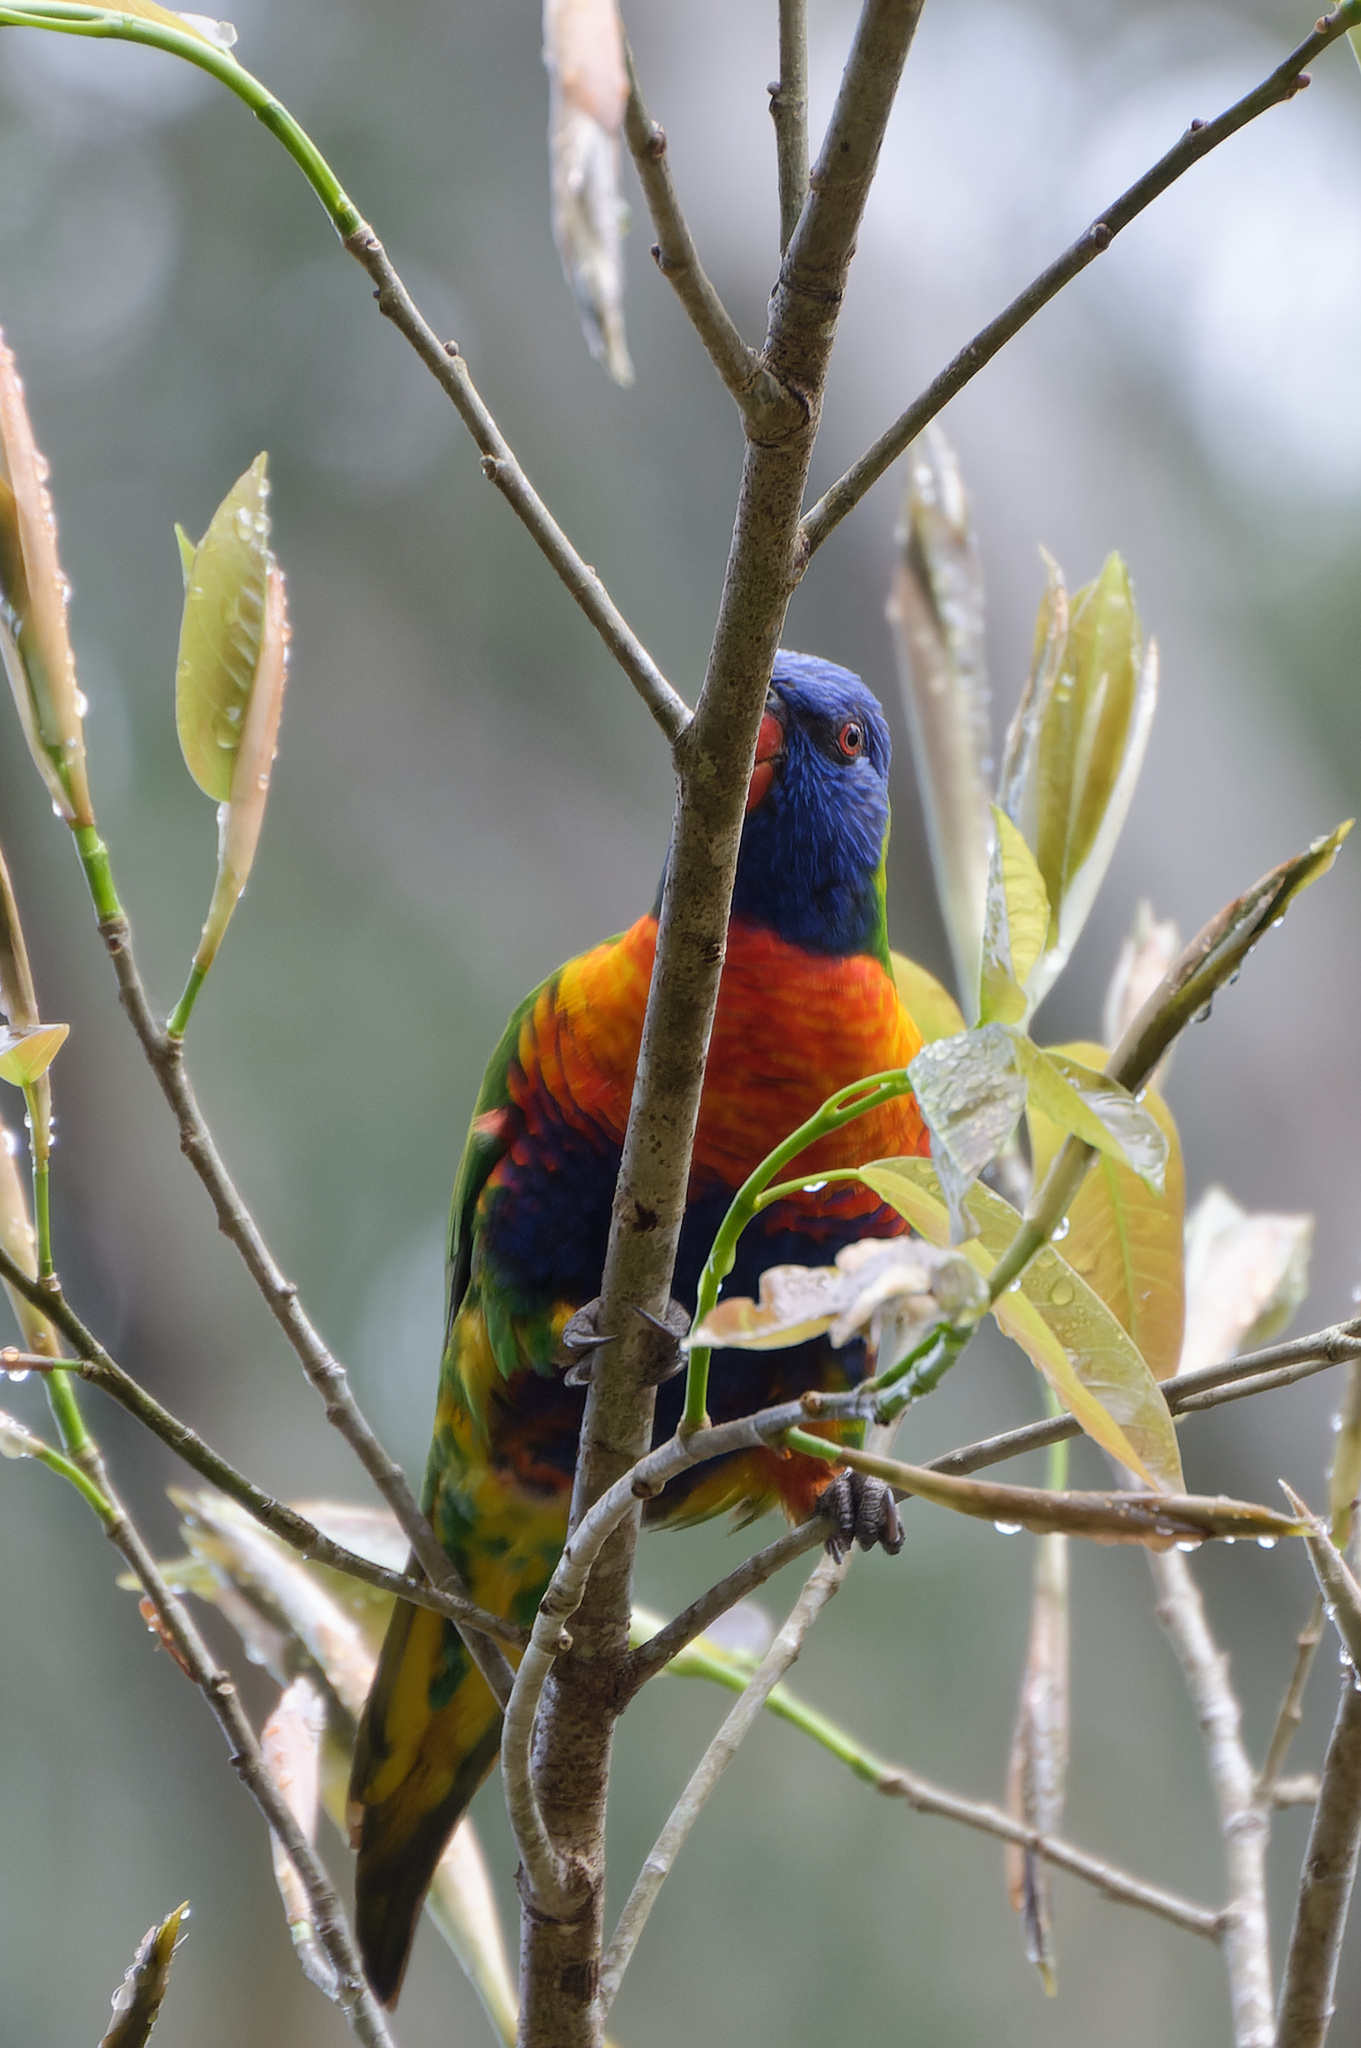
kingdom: Animalia
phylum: Chordata
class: Aves
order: Psittaciformes
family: Psittacidae
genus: Trichoglossus
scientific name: Trichoglossus haematodus
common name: Coconut lorikeet
